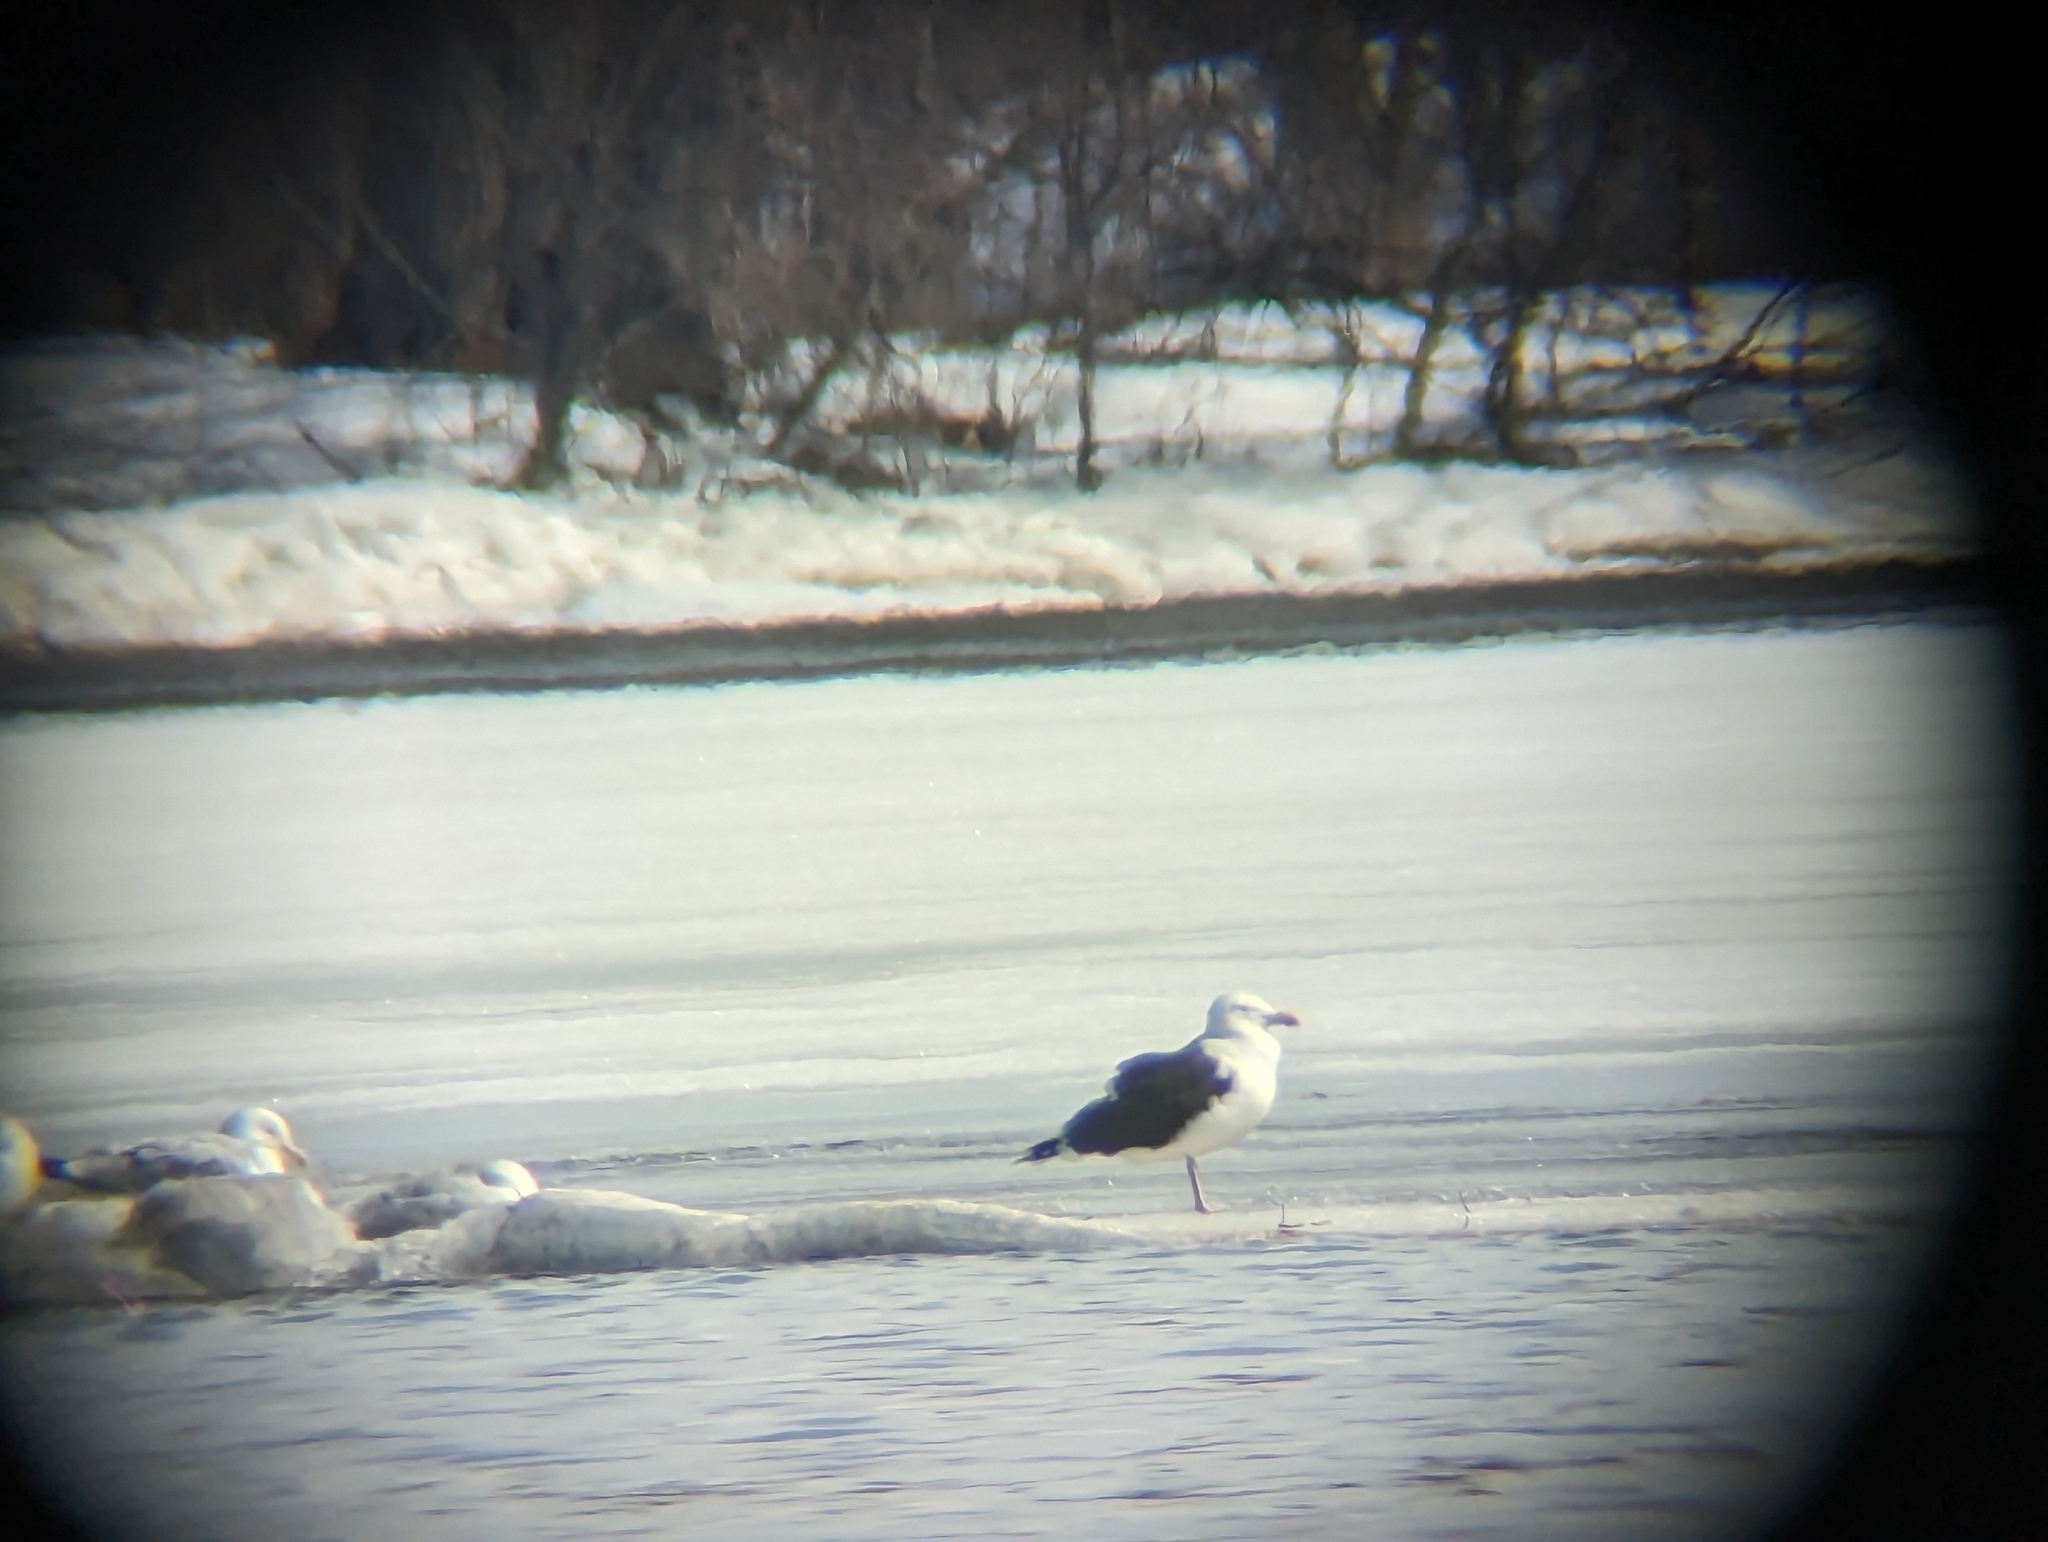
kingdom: Animalia
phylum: Chordata
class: Aves
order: Charadriiformes
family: Laridae
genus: Larus
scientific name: Larus marinus
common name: Great black-backed gull
